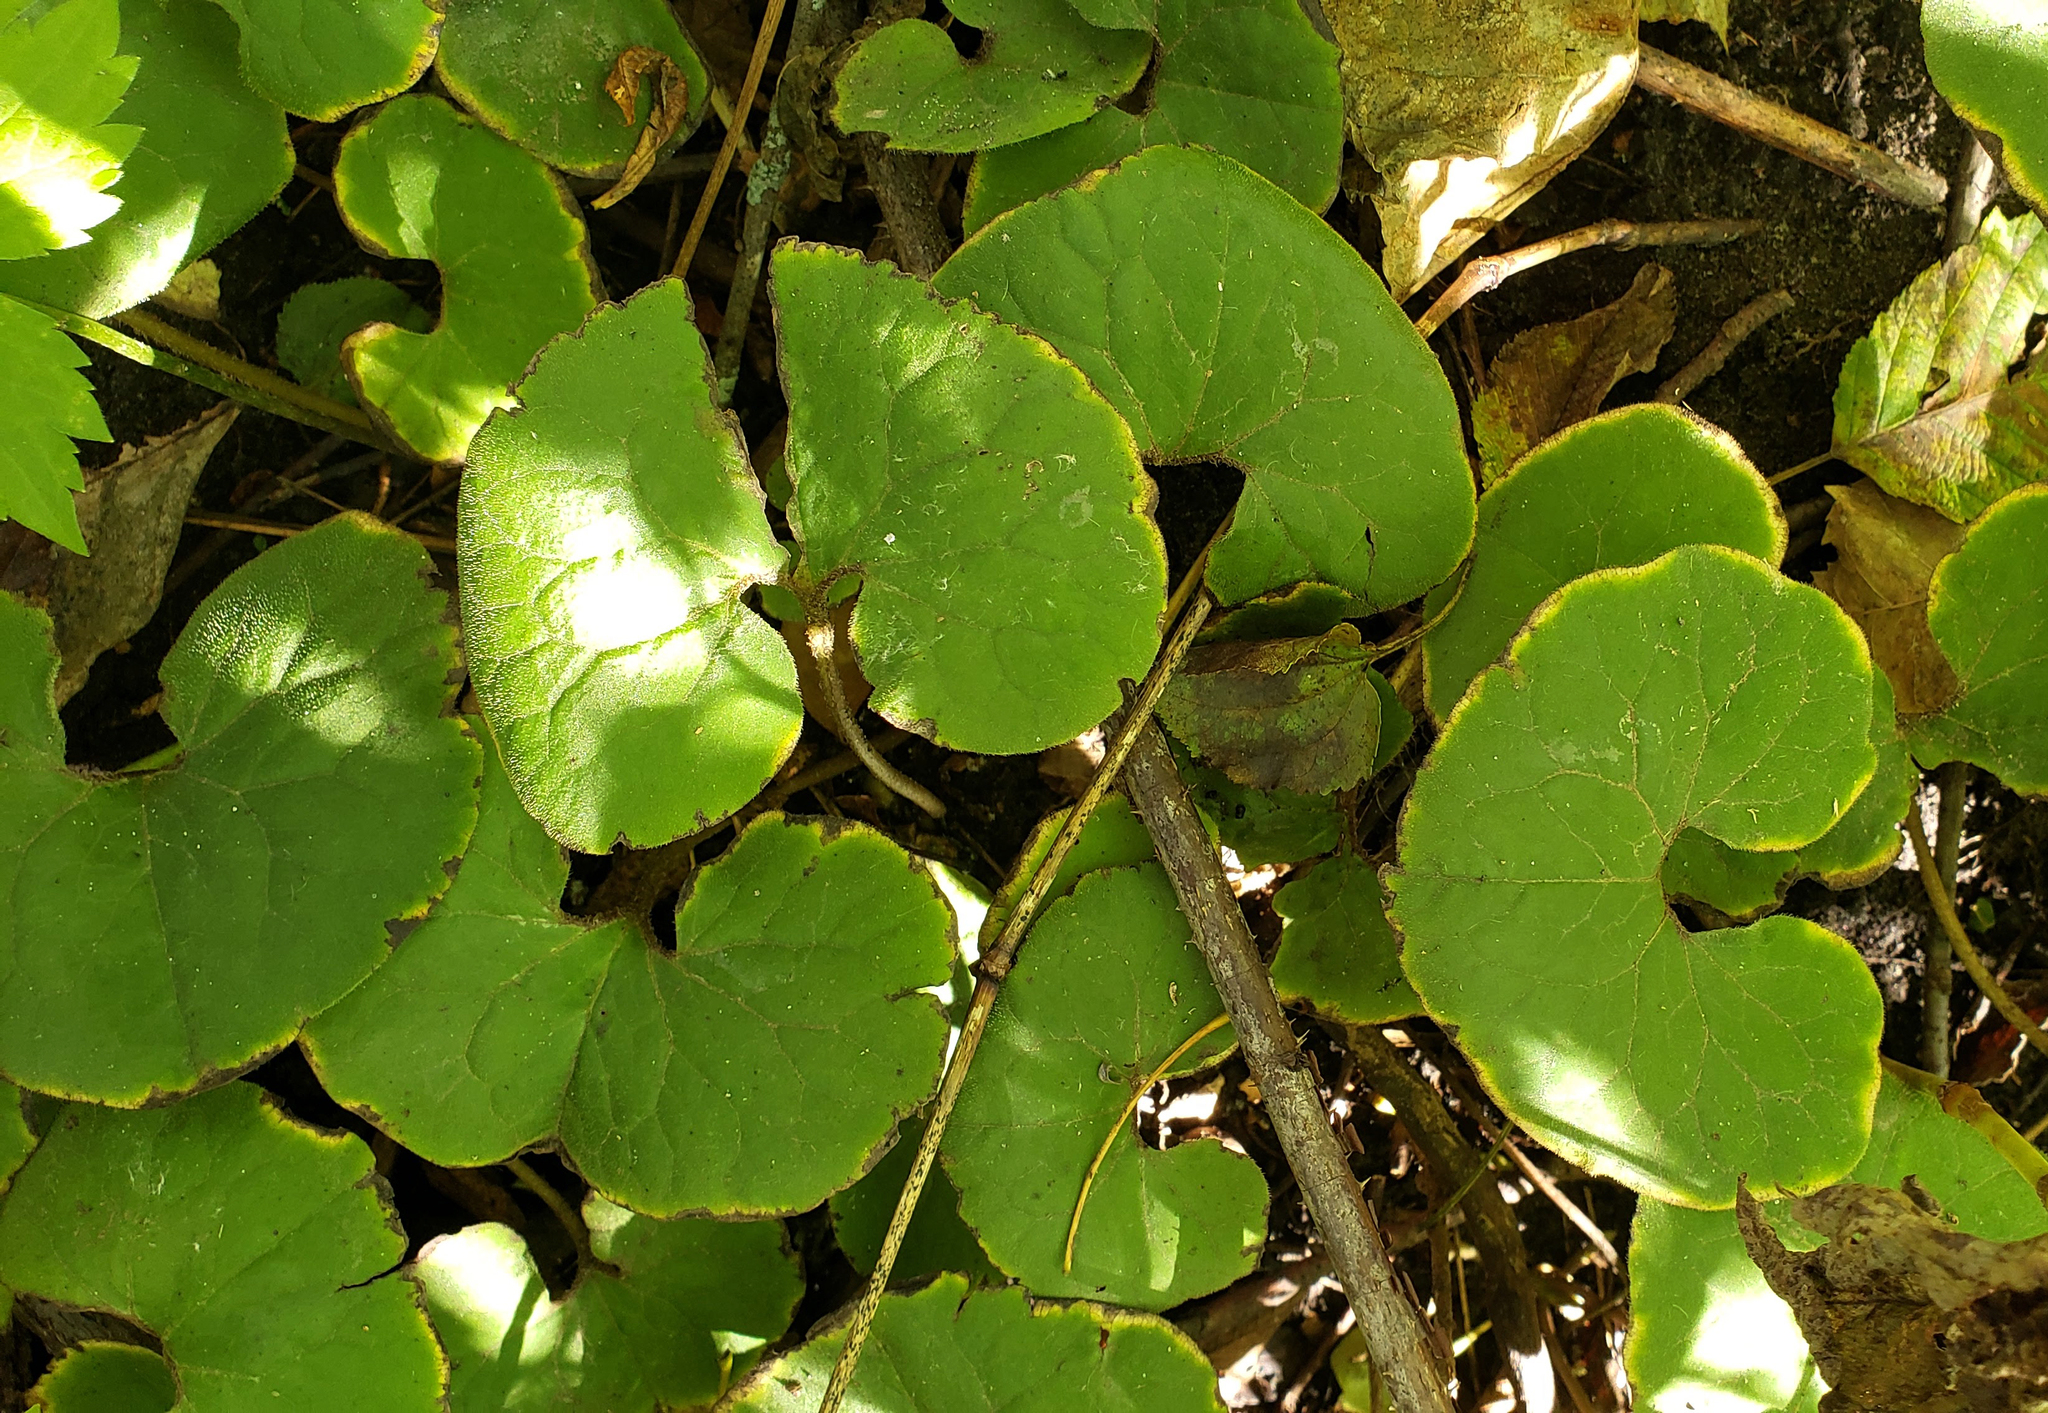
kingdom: Plantae
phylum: Tracheophyta
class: Magnoliopsida
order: Piperales
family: Aristolochiaceae
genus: Asarum
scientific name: Asarum canadense
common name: Wild ginger
